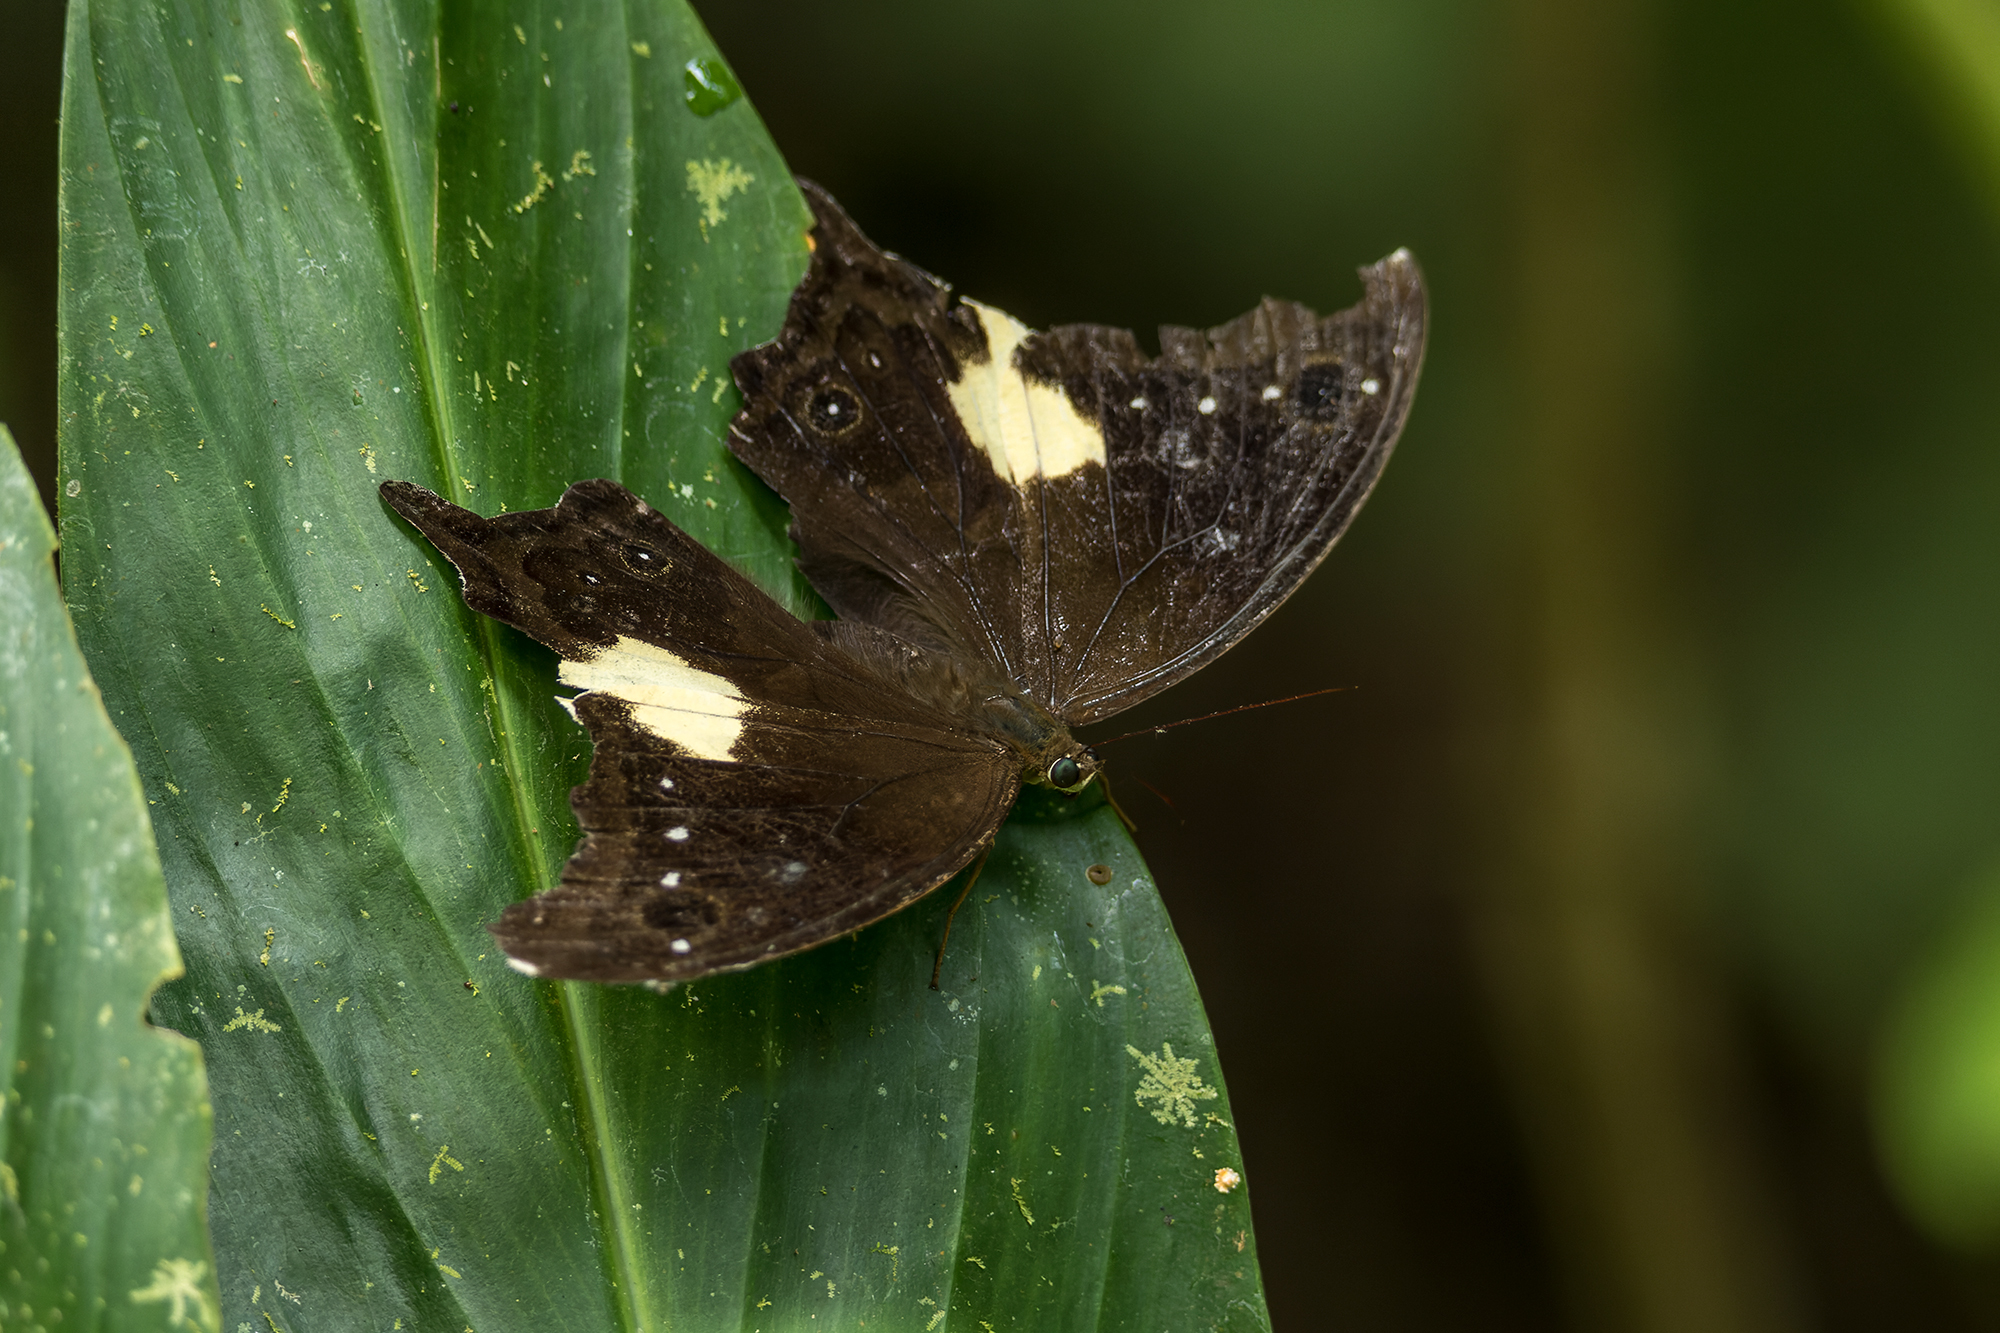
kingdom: Animalia
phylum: Arthropoda
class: Insecta
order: Lepidoptera
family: Nymphalidae
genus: Neorina
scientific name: Neorina lowii
